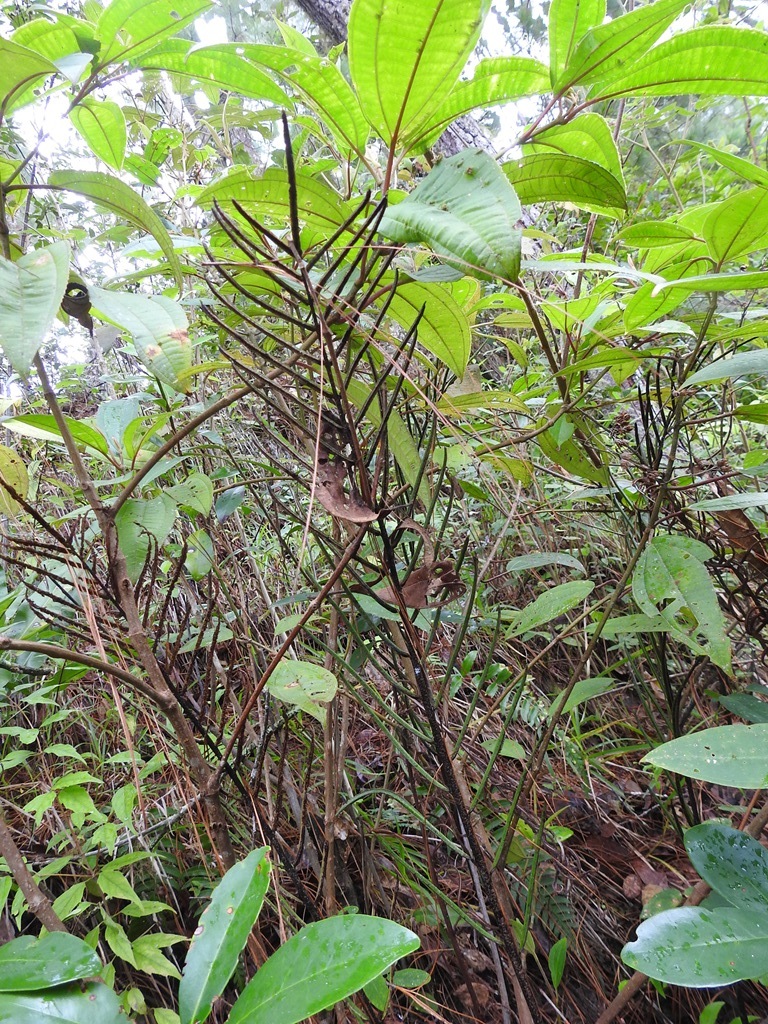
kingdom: Plantae
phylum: Tracheophyta
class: Polypodiopsida
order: Polypodiales
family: Blechnaceae
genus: Parablechnum
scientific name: Parablechnum schiedeanum
